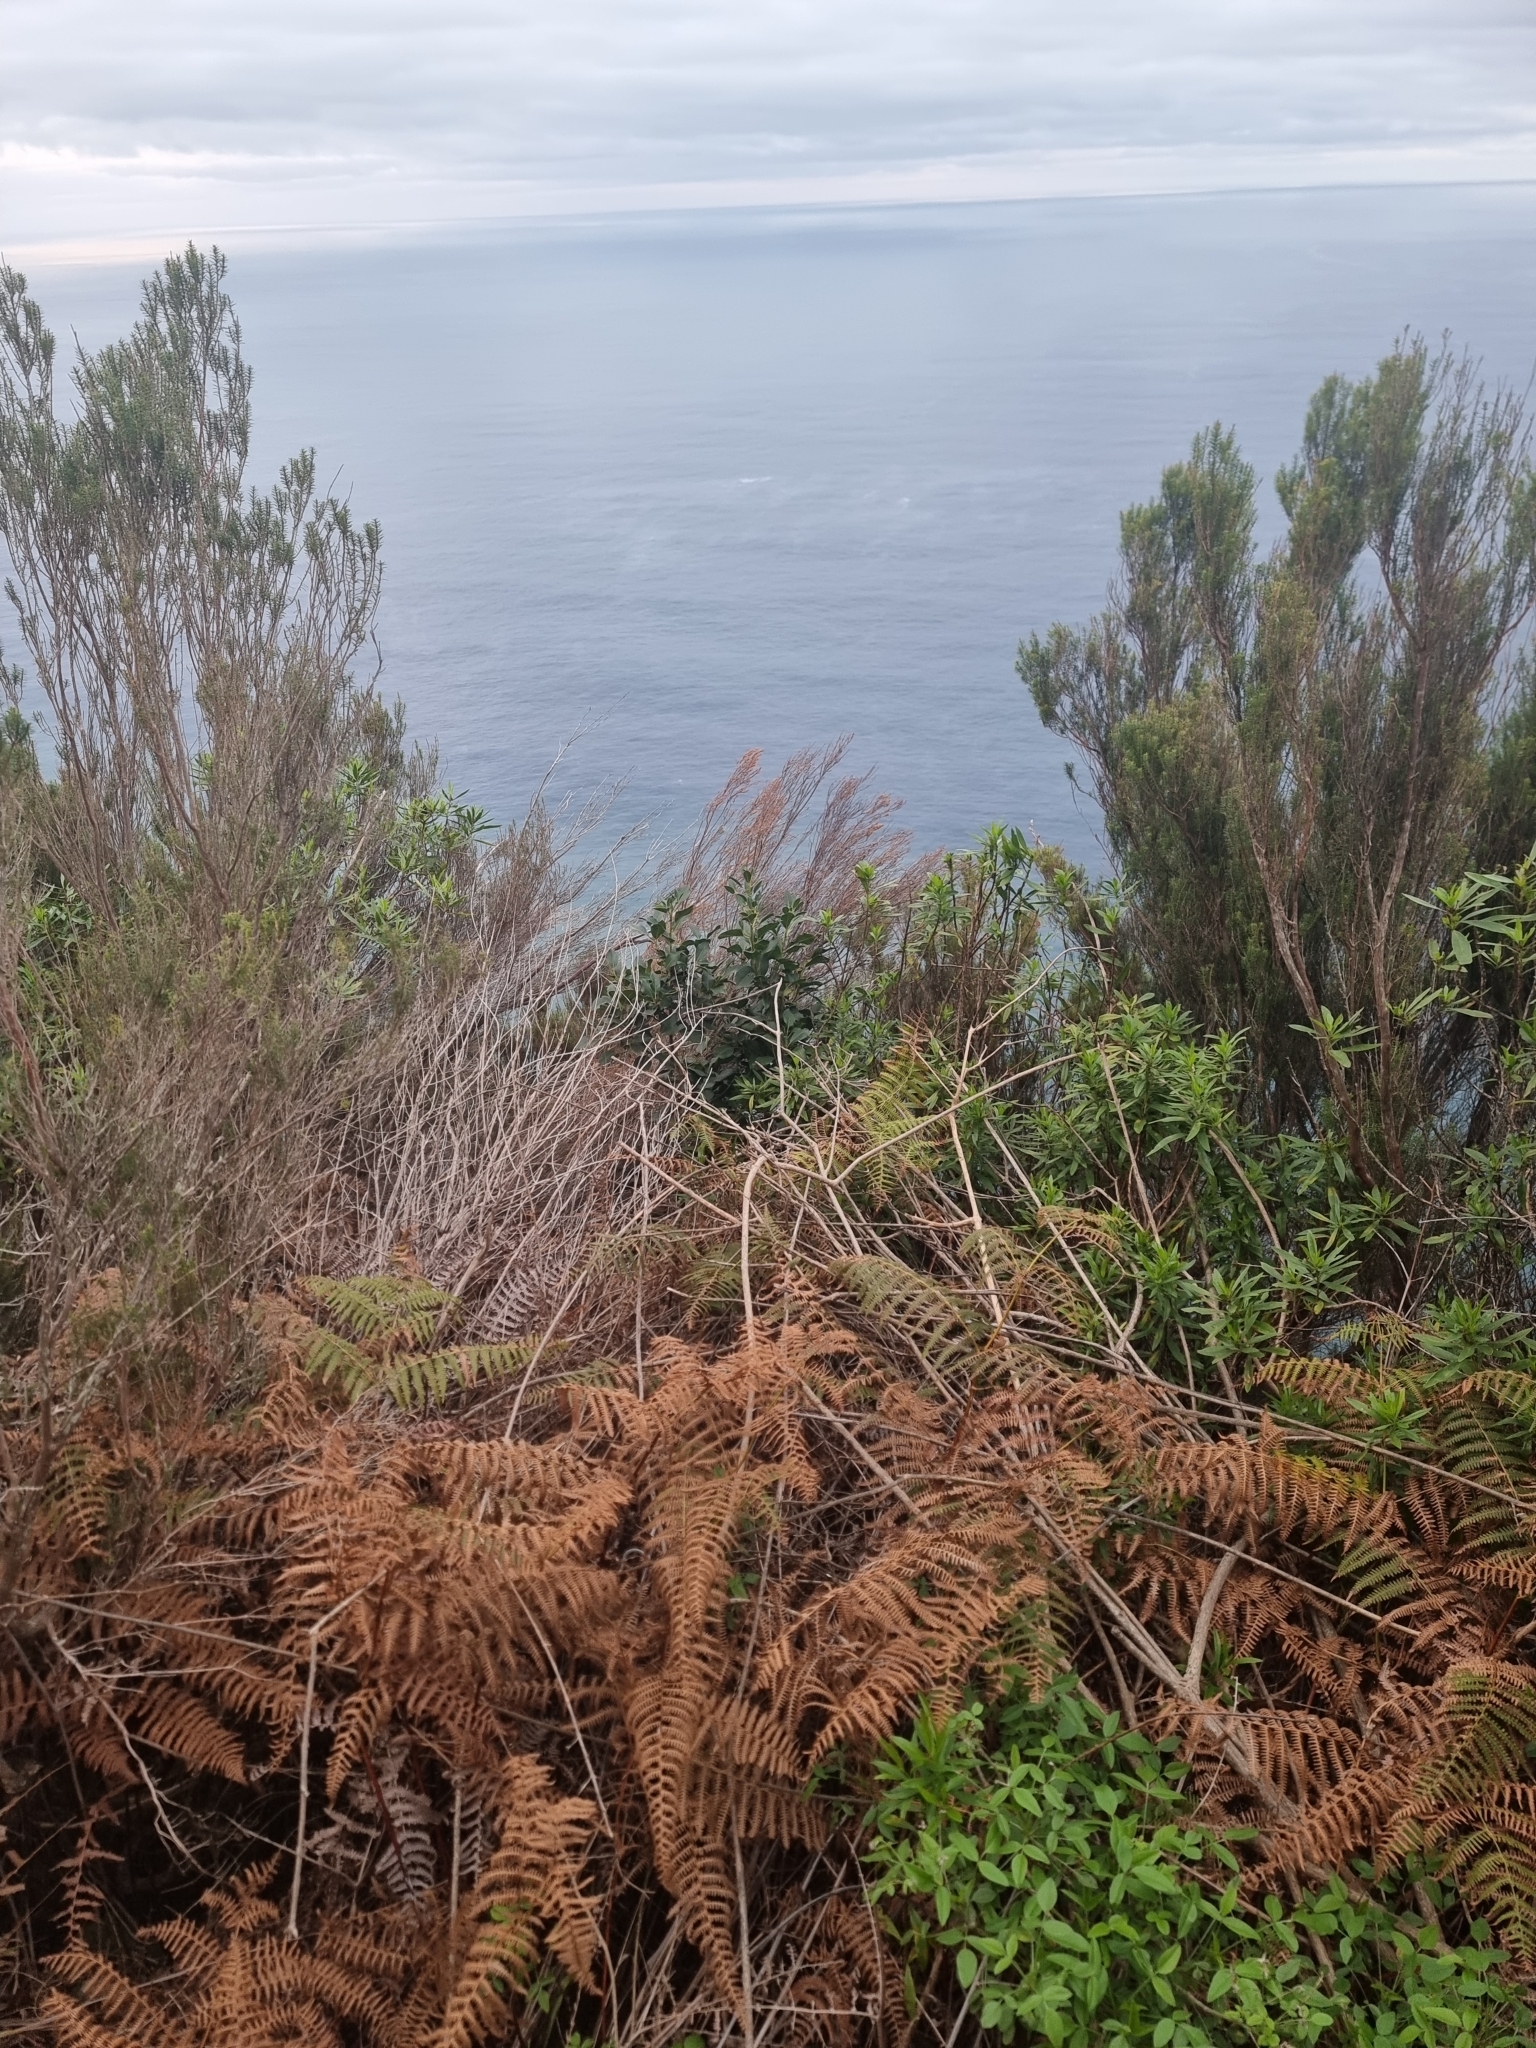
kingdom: Plantae
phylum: Tracheophyta
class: Magnoliopsida
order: Aquifoliales
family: Aquifoliaceae
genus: Ilex
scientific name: Ilex canariensis
